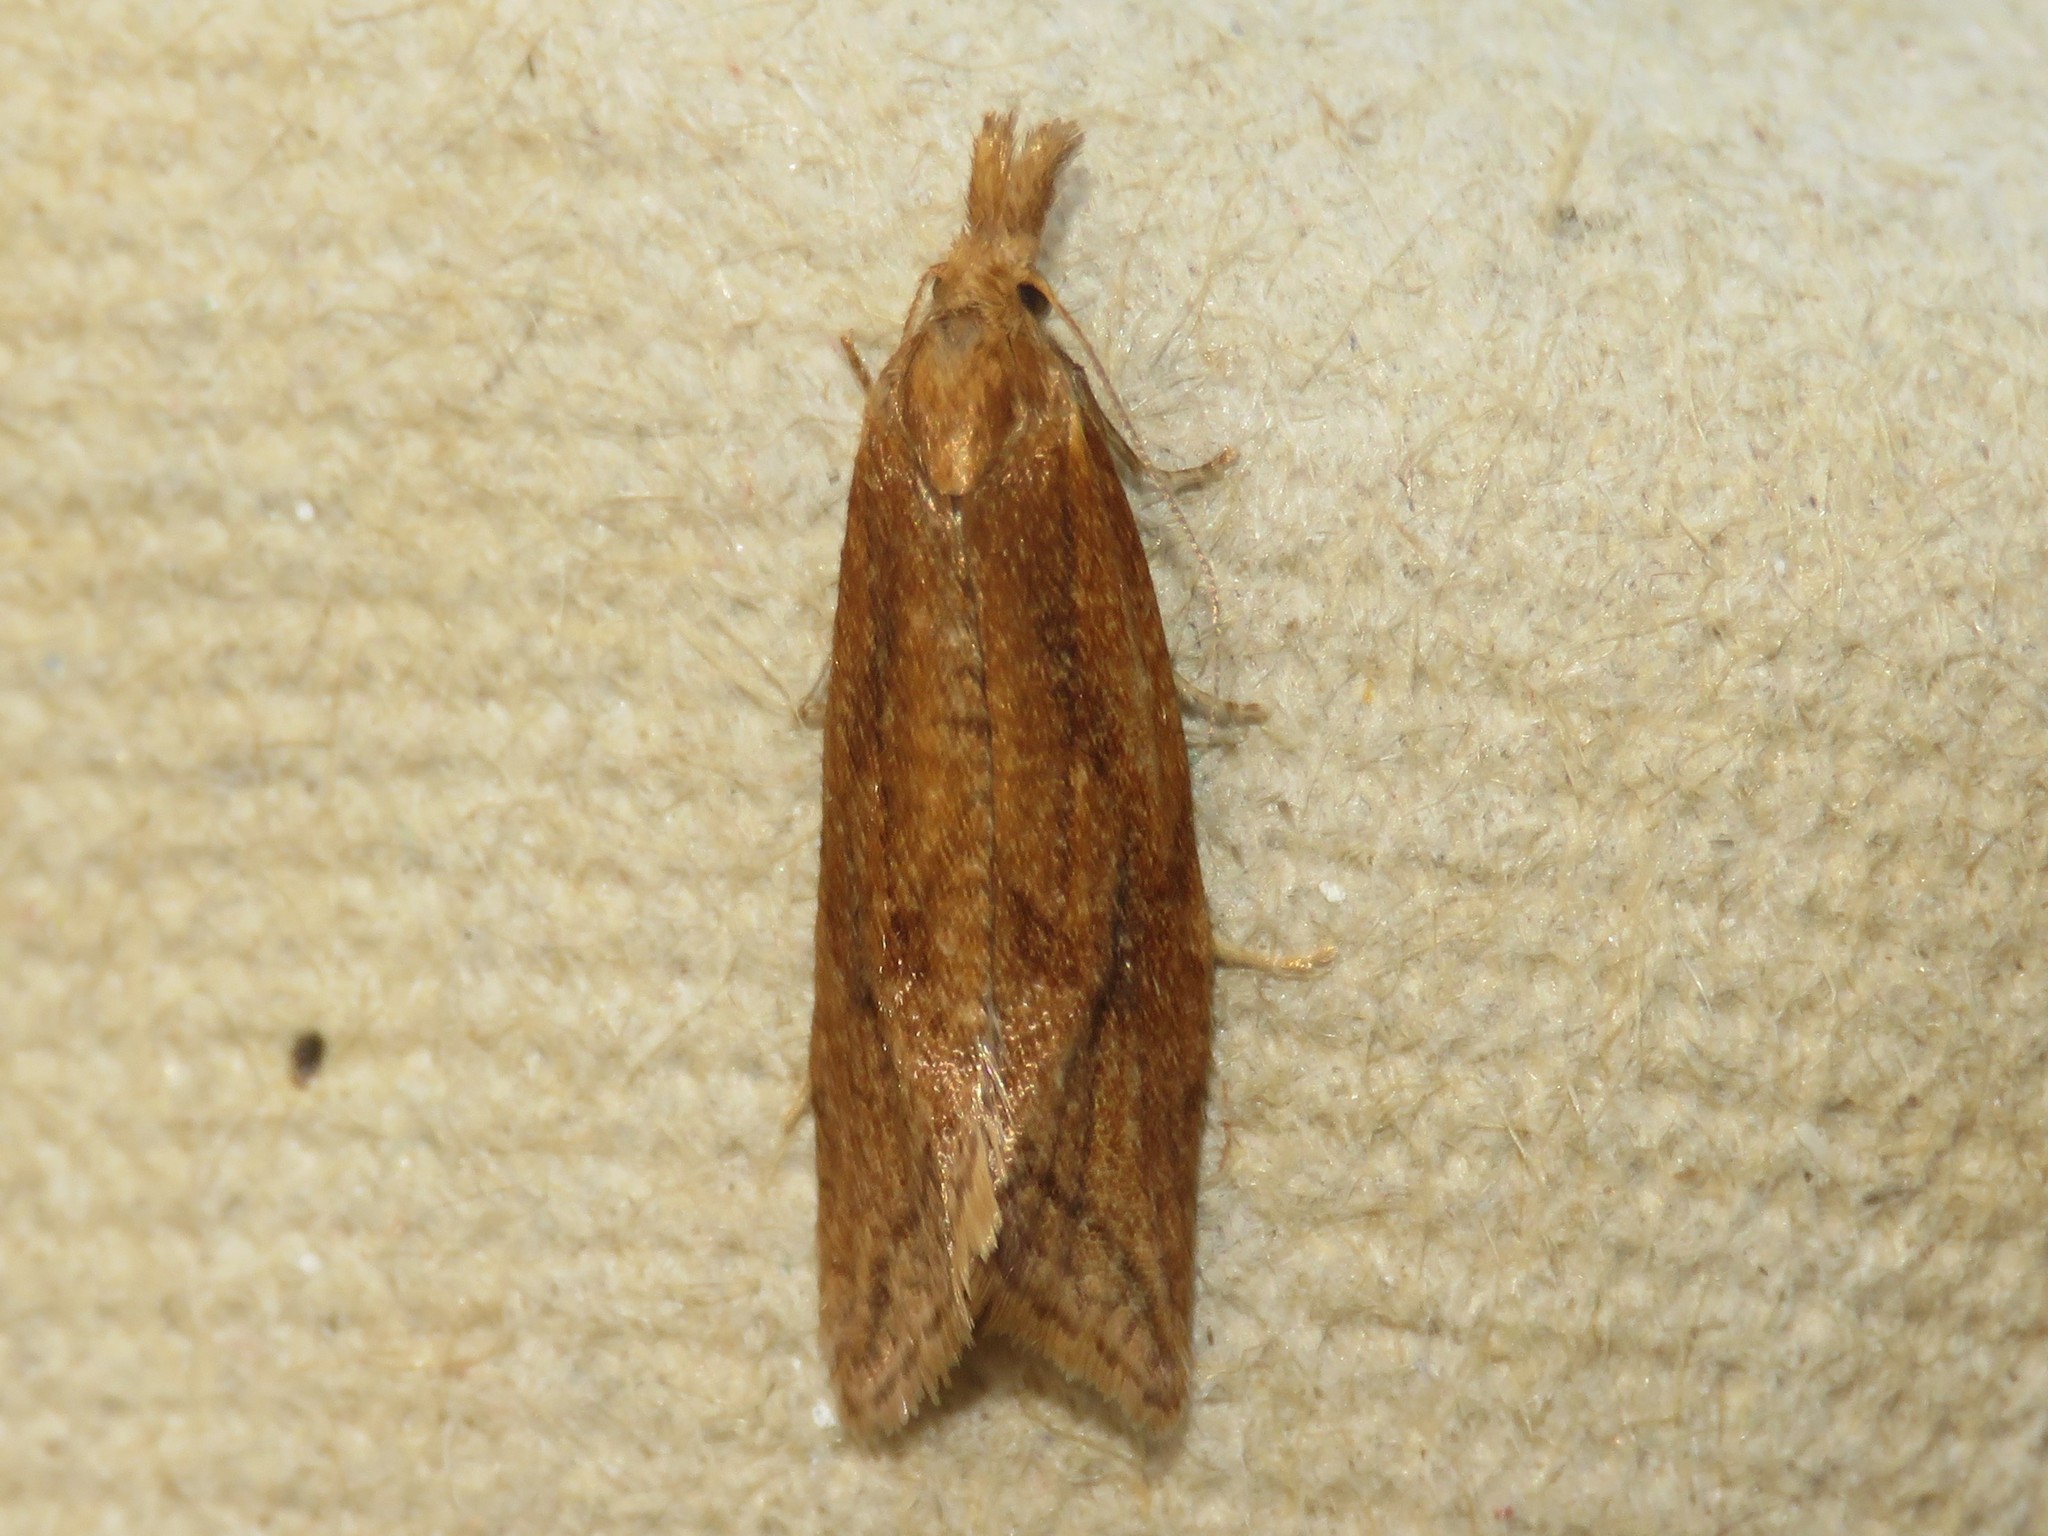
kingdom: Animalia
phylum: Arthropoda
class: Insecta
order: Lepidoptera
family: Tortricidae
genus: Aethes
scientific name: Aethes biscana
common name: Reddish aethes
